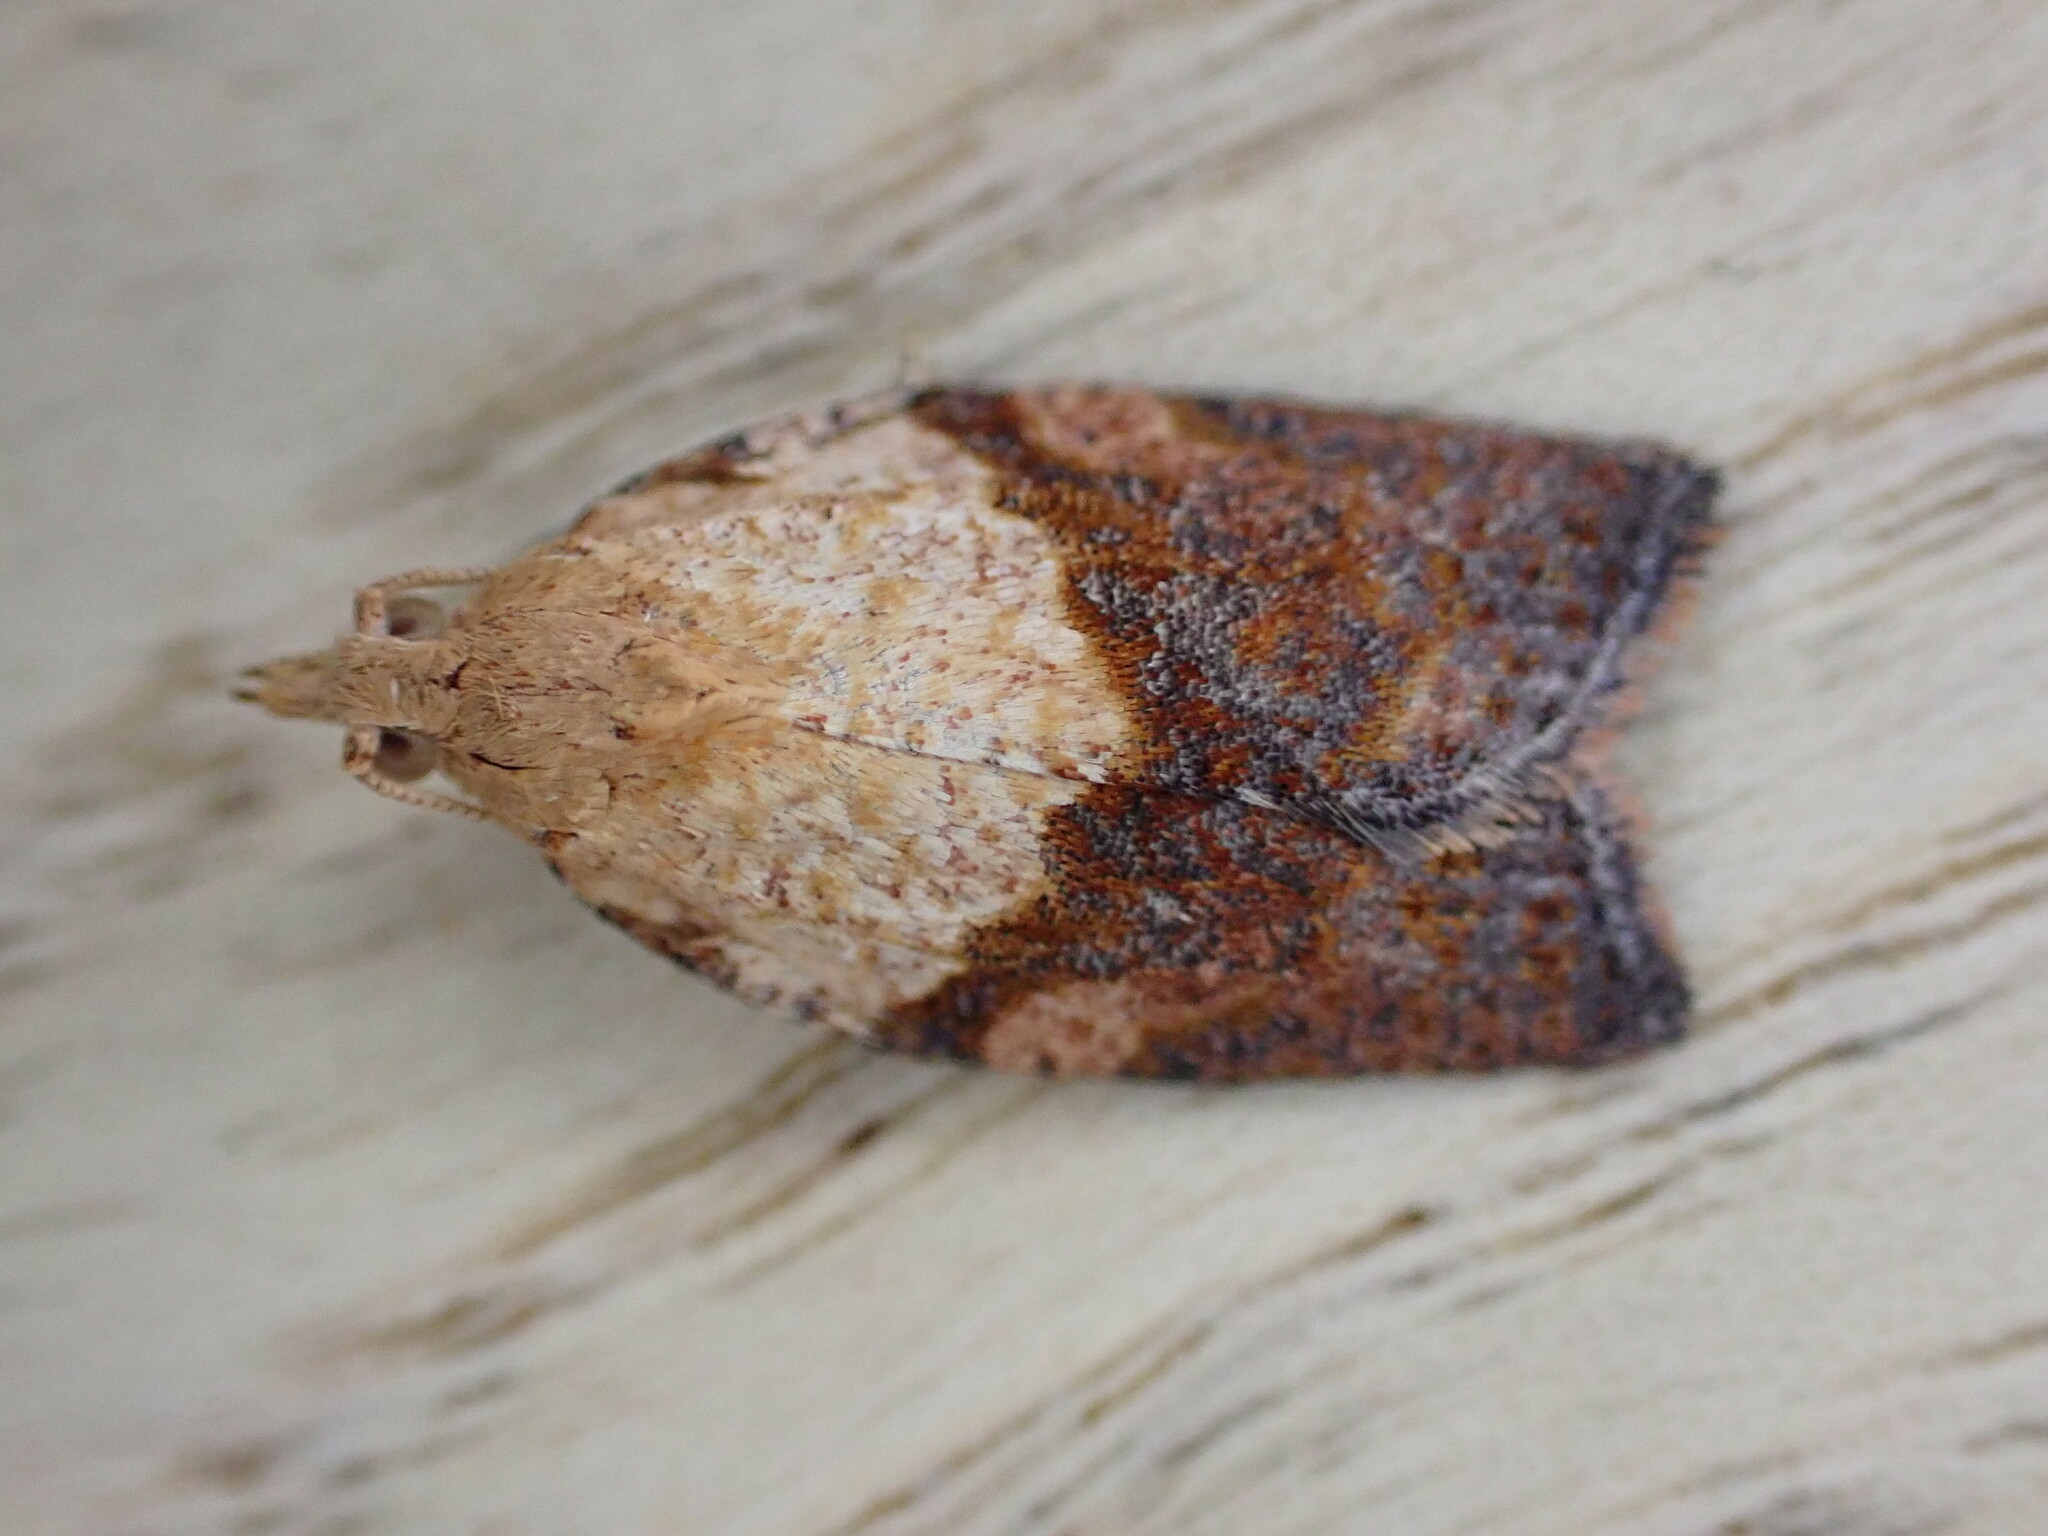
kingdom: Animalia
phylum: Arthropoda
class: Insecta
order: Lepidoptera
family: Tortricidae
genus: Epiphyas
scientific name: Epiphyas postvittana
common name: Light brown apple moth
